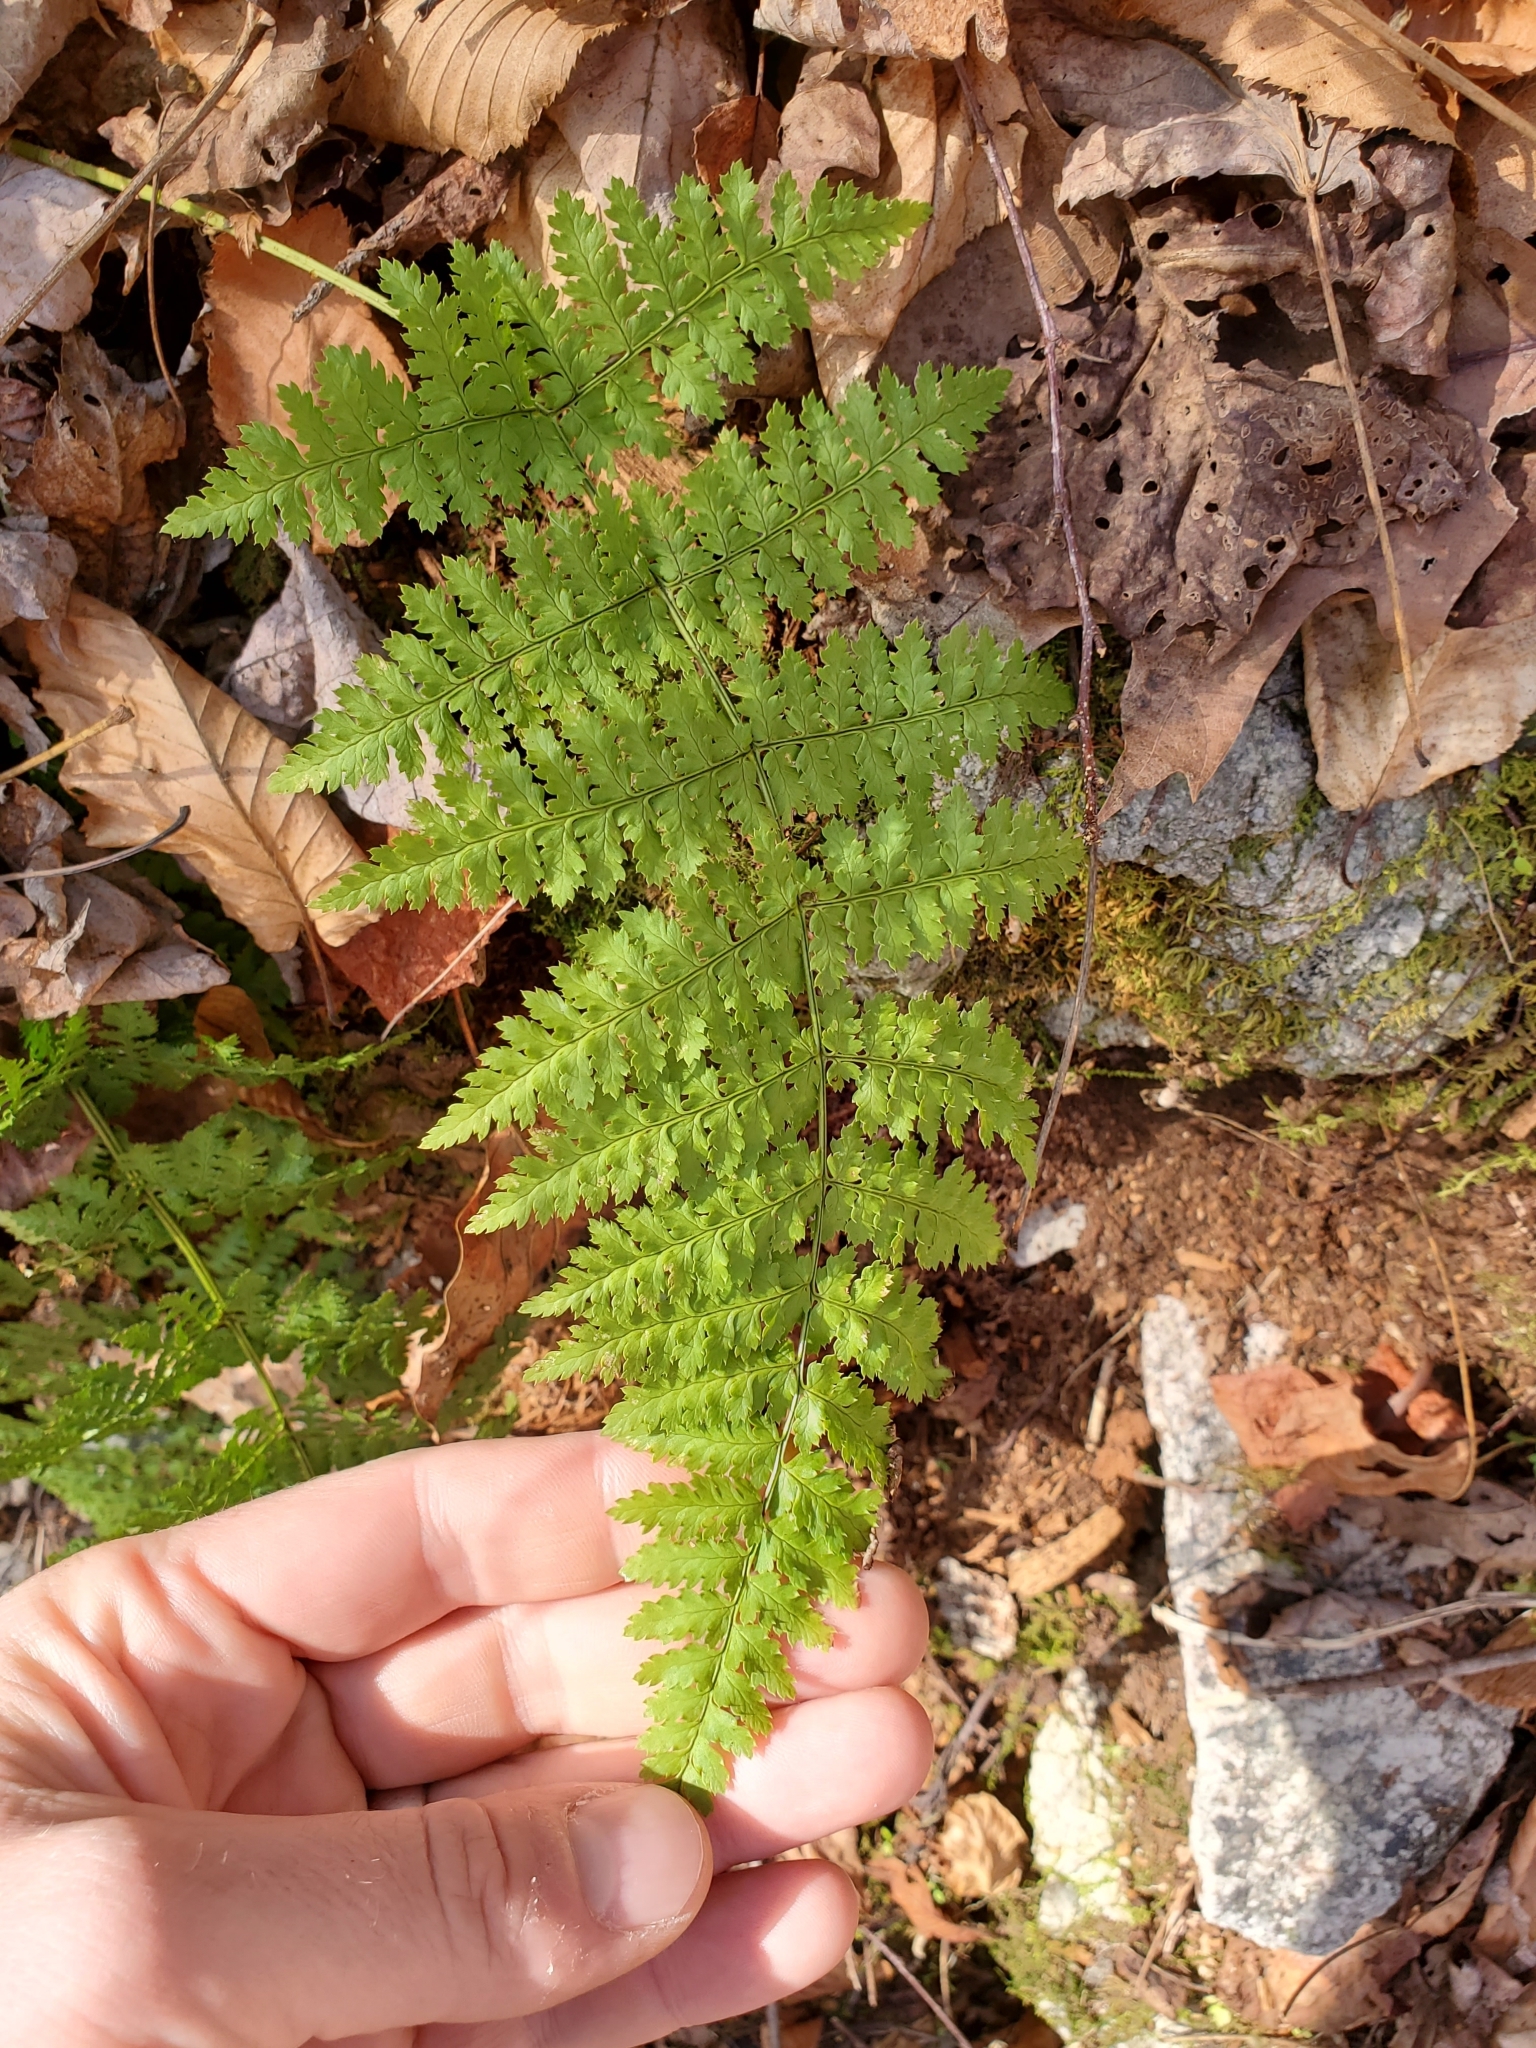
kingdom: Plantae
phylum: Tracheophyta
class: Polypodiopsida
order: Polypodiales
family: Dryopteridaceae
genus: Dryopteris
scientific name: Dryopteris intermedia
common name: Evergreen wood fern
